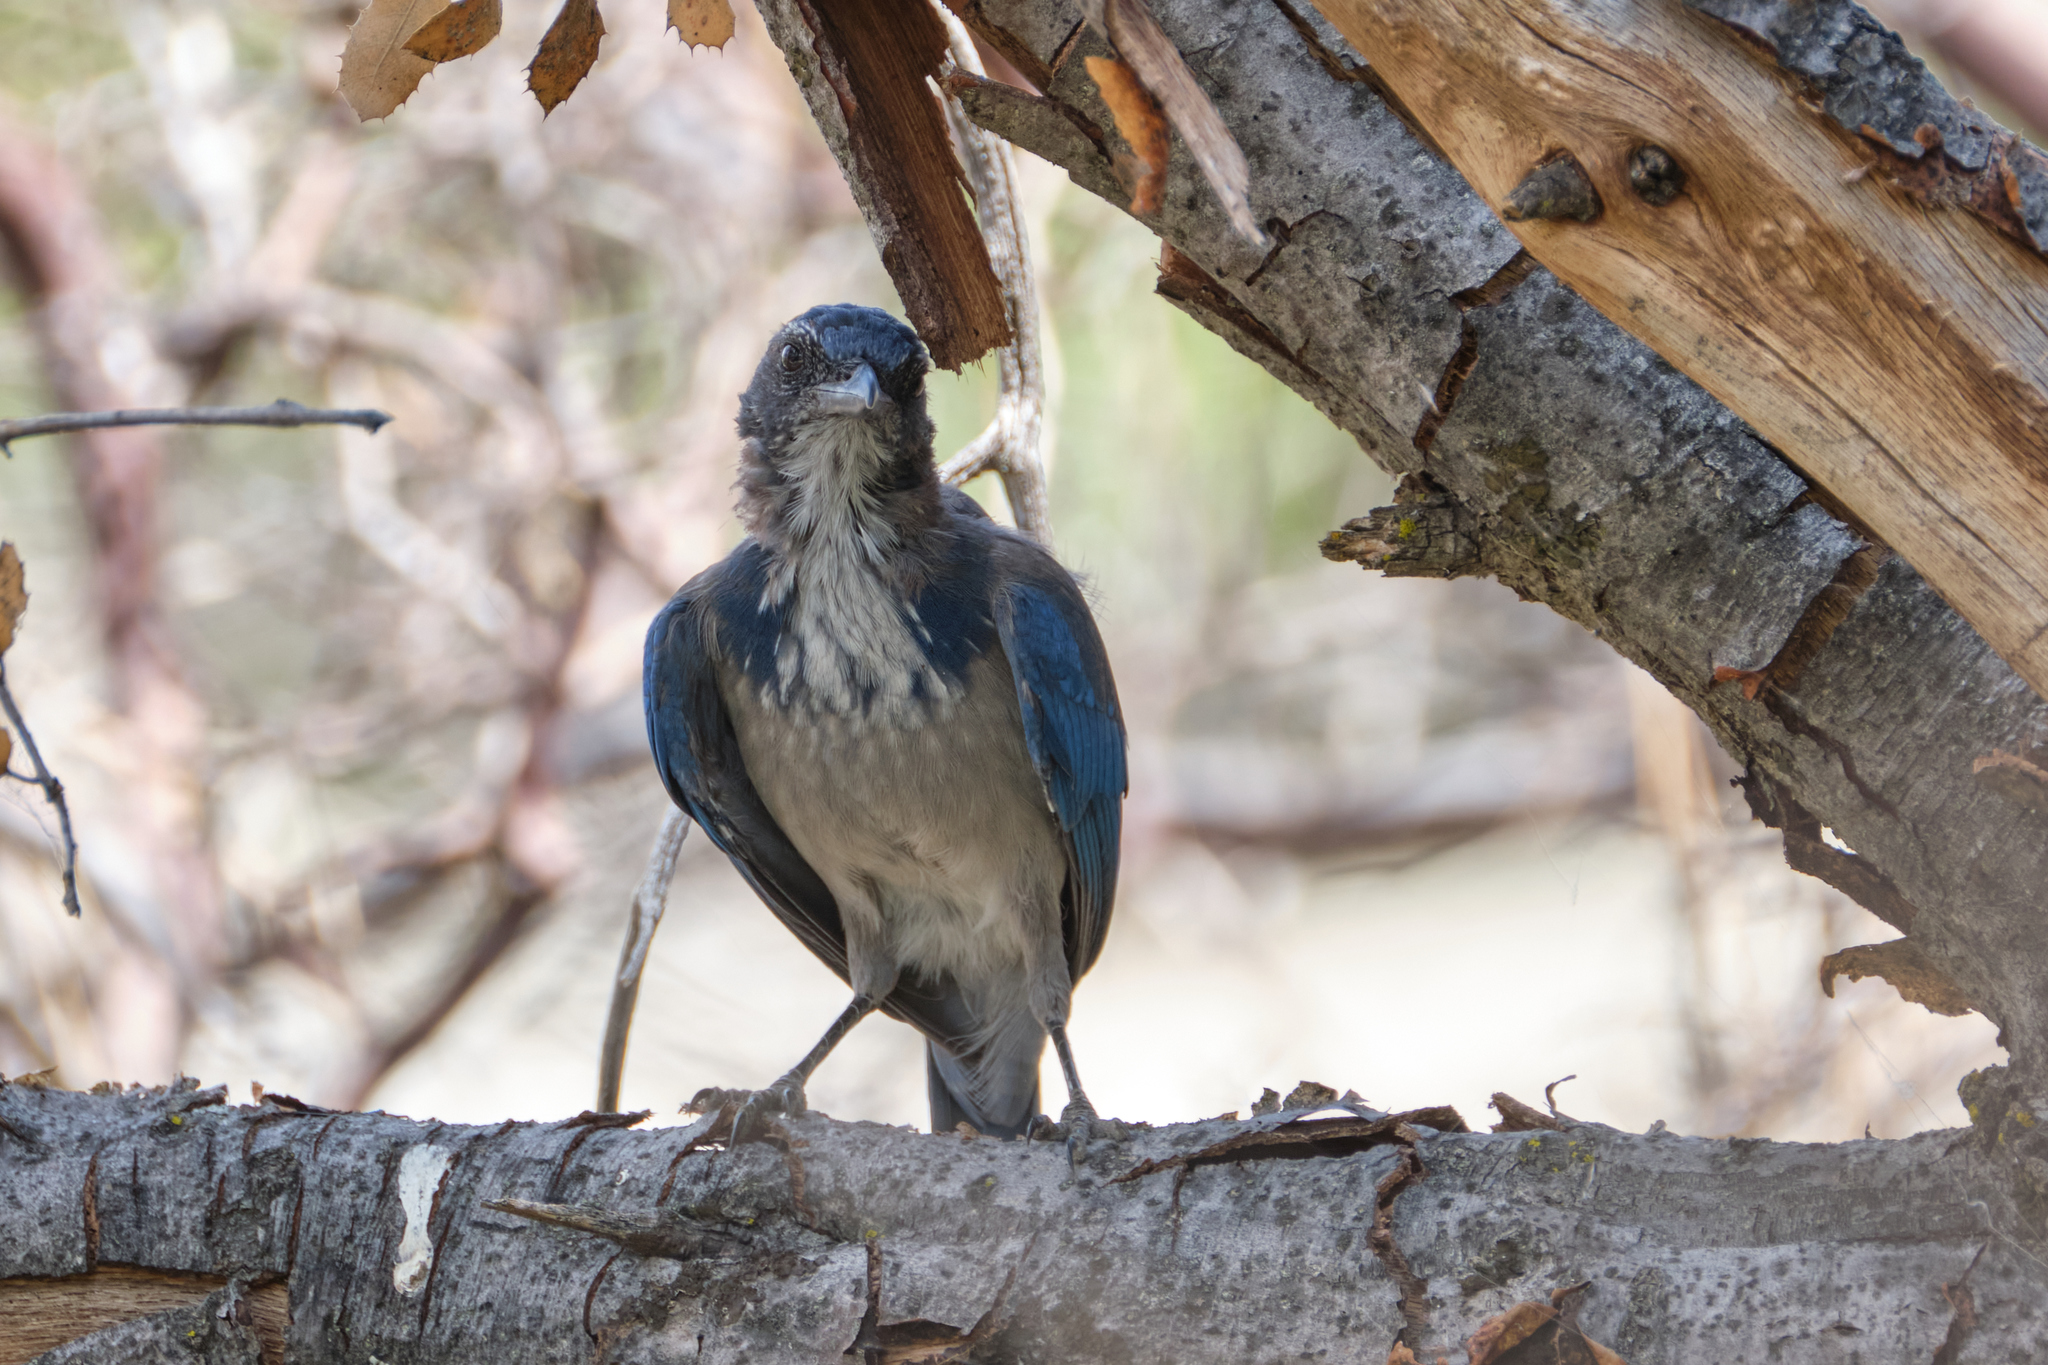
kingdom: Animalia
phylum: Chordata
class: Aves
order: Passeriformes
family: Corvidae
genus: Aphelocoma
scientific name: Aphelocoma californica
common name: California scrub-jay
